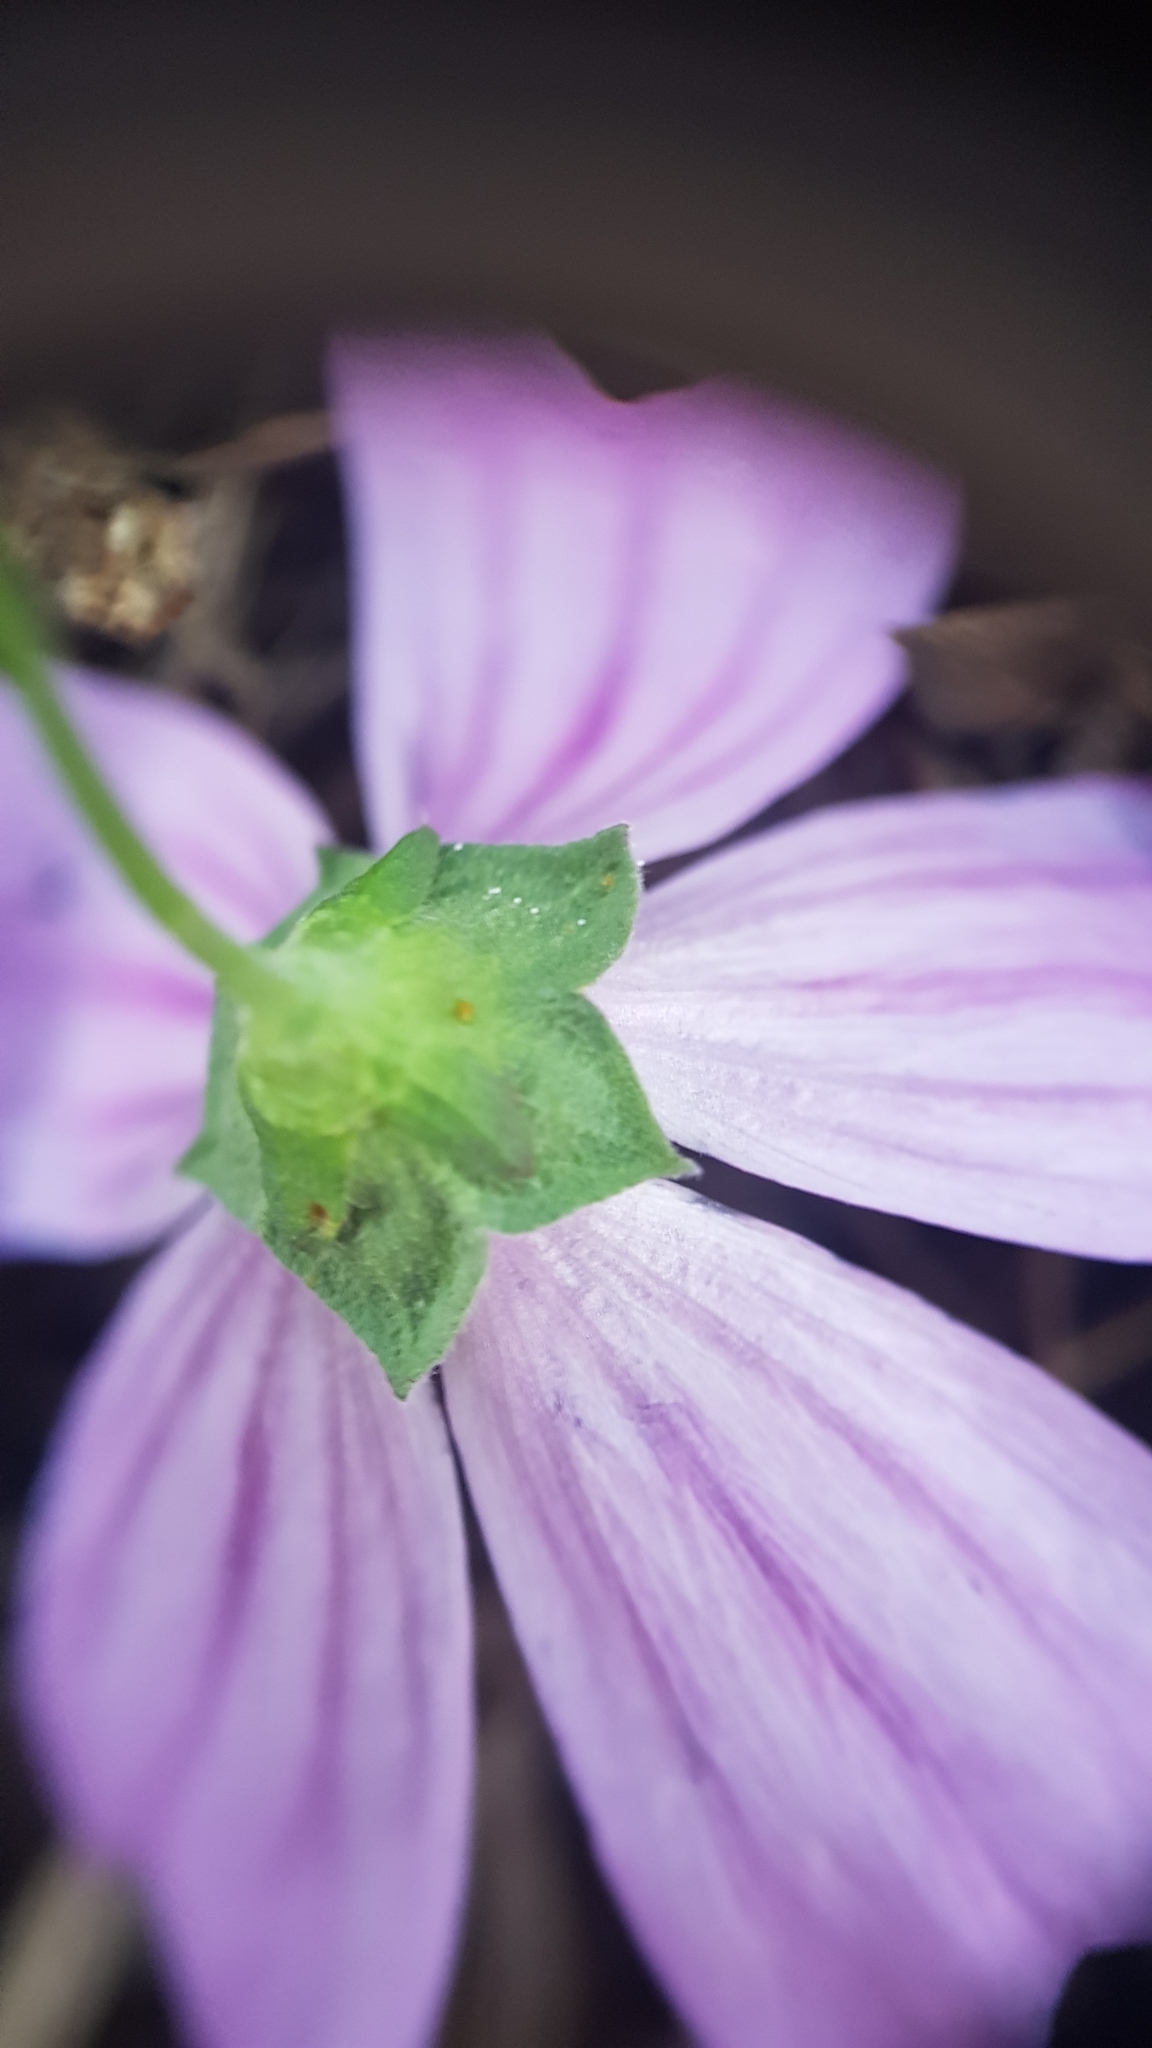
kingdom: Plantae
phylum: Tracheophyta
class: Magnoliopsida
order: Malvales
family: Malvaceae
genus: Malva
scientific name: Malva sylvestris
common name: Common mallow
